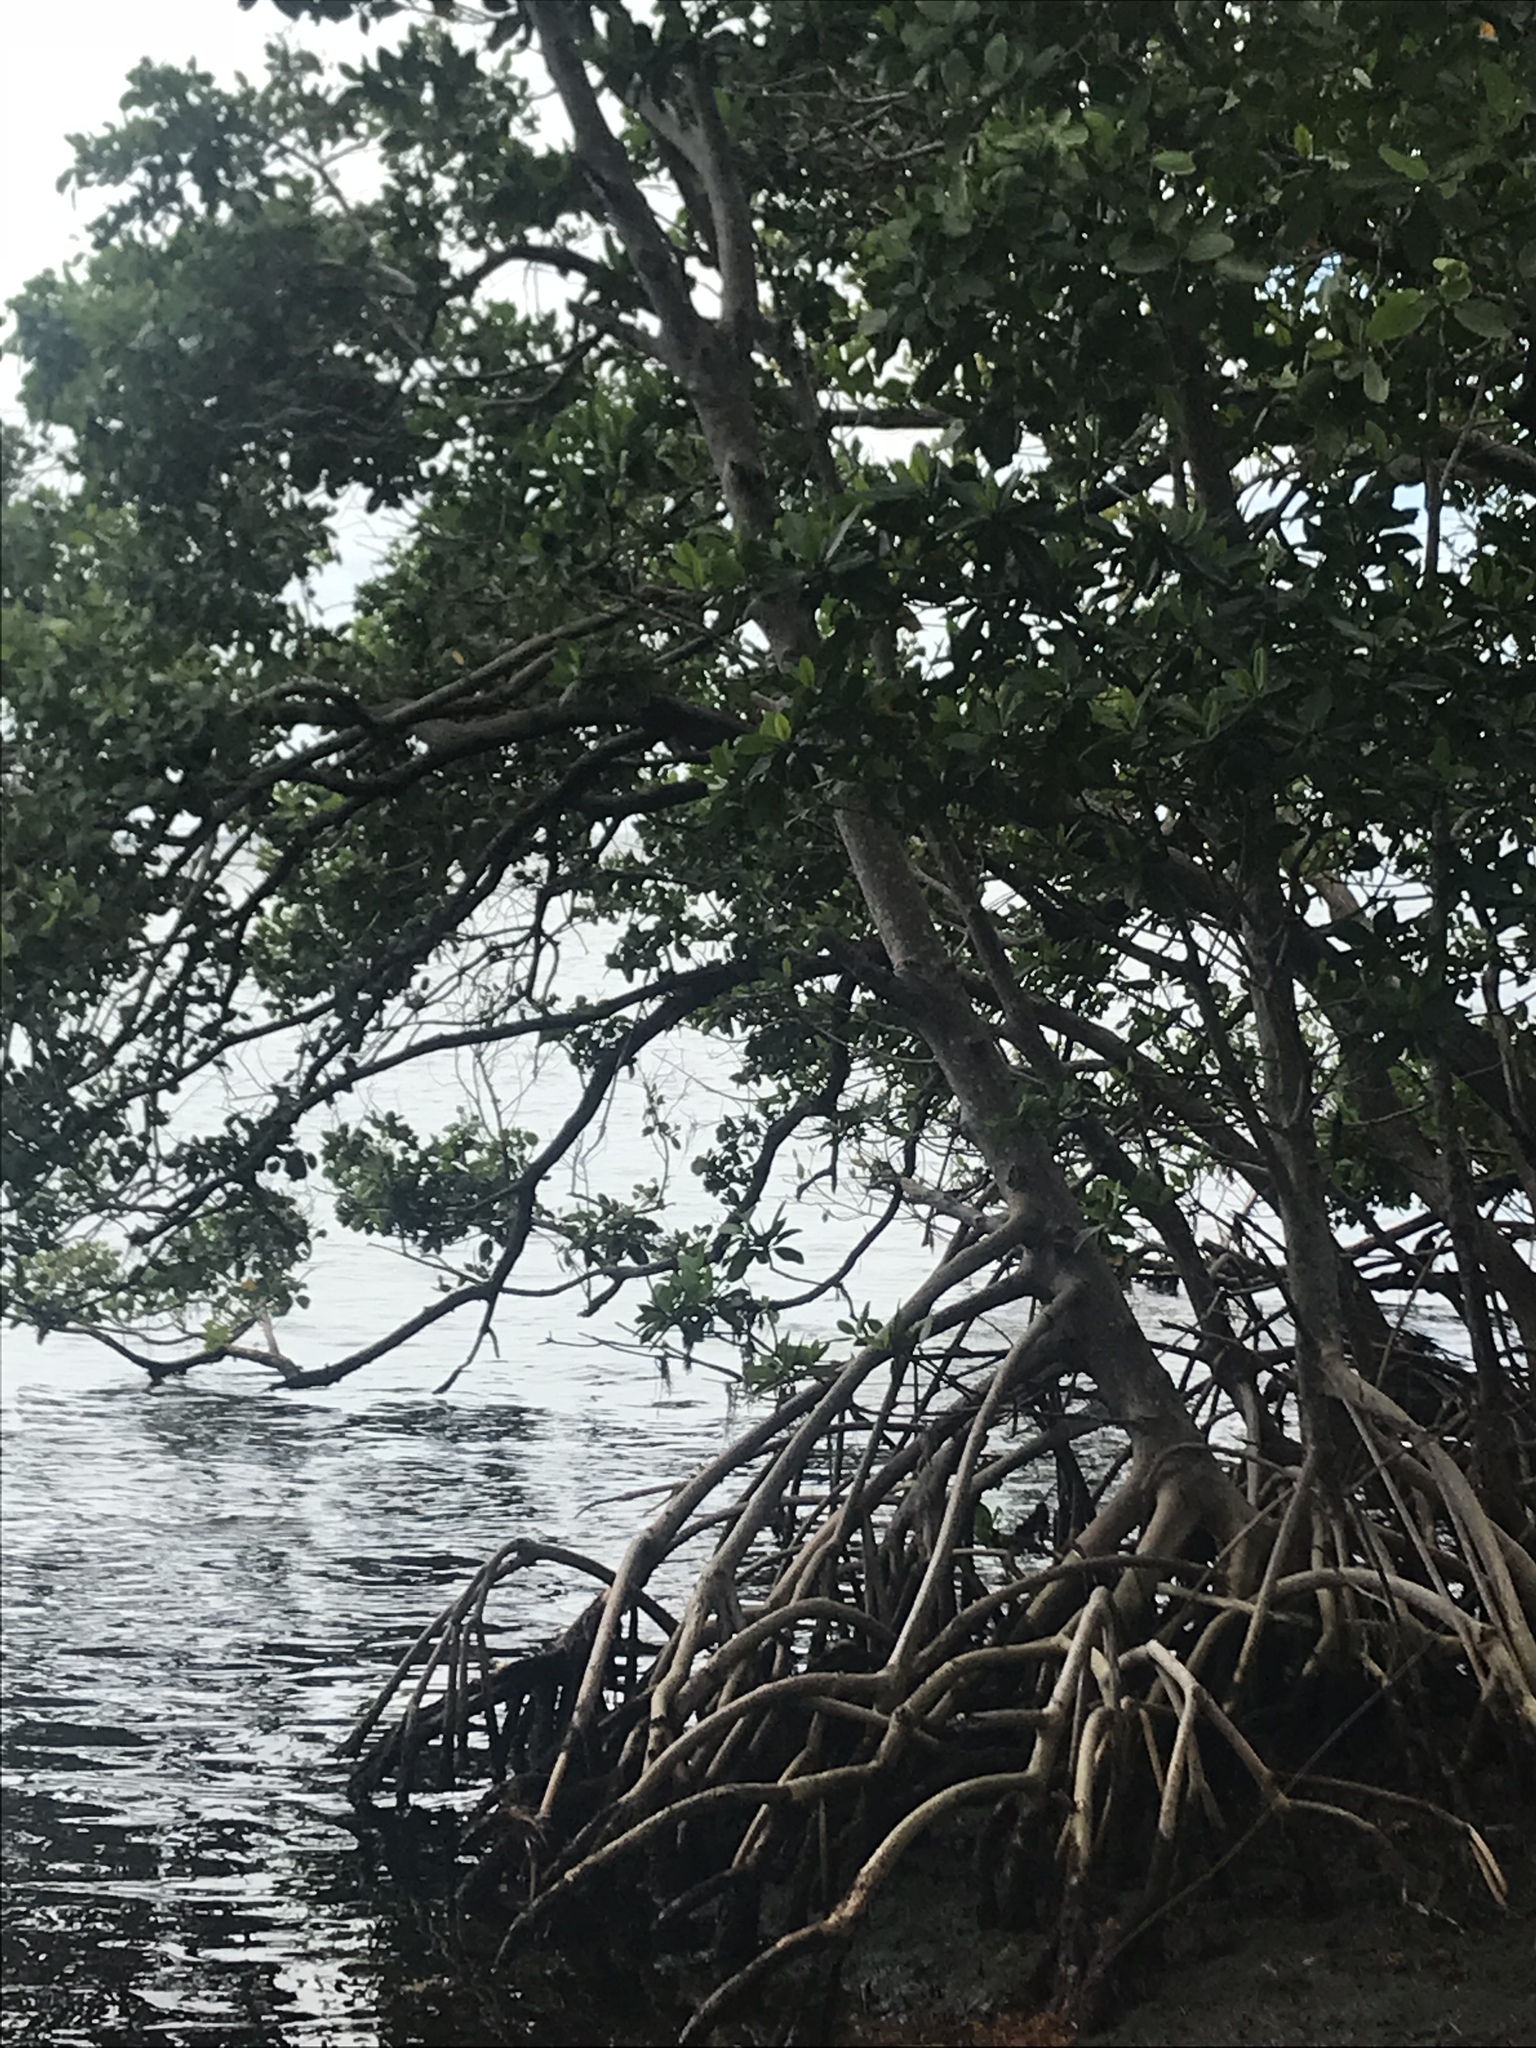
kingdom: Plantae
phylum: Tracheophyta
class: Magnoliopsida
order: Malpighiales
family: Rhizophoraceae
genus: Rhizophora
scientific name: Rhizophora mangle
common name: Red mangrove
